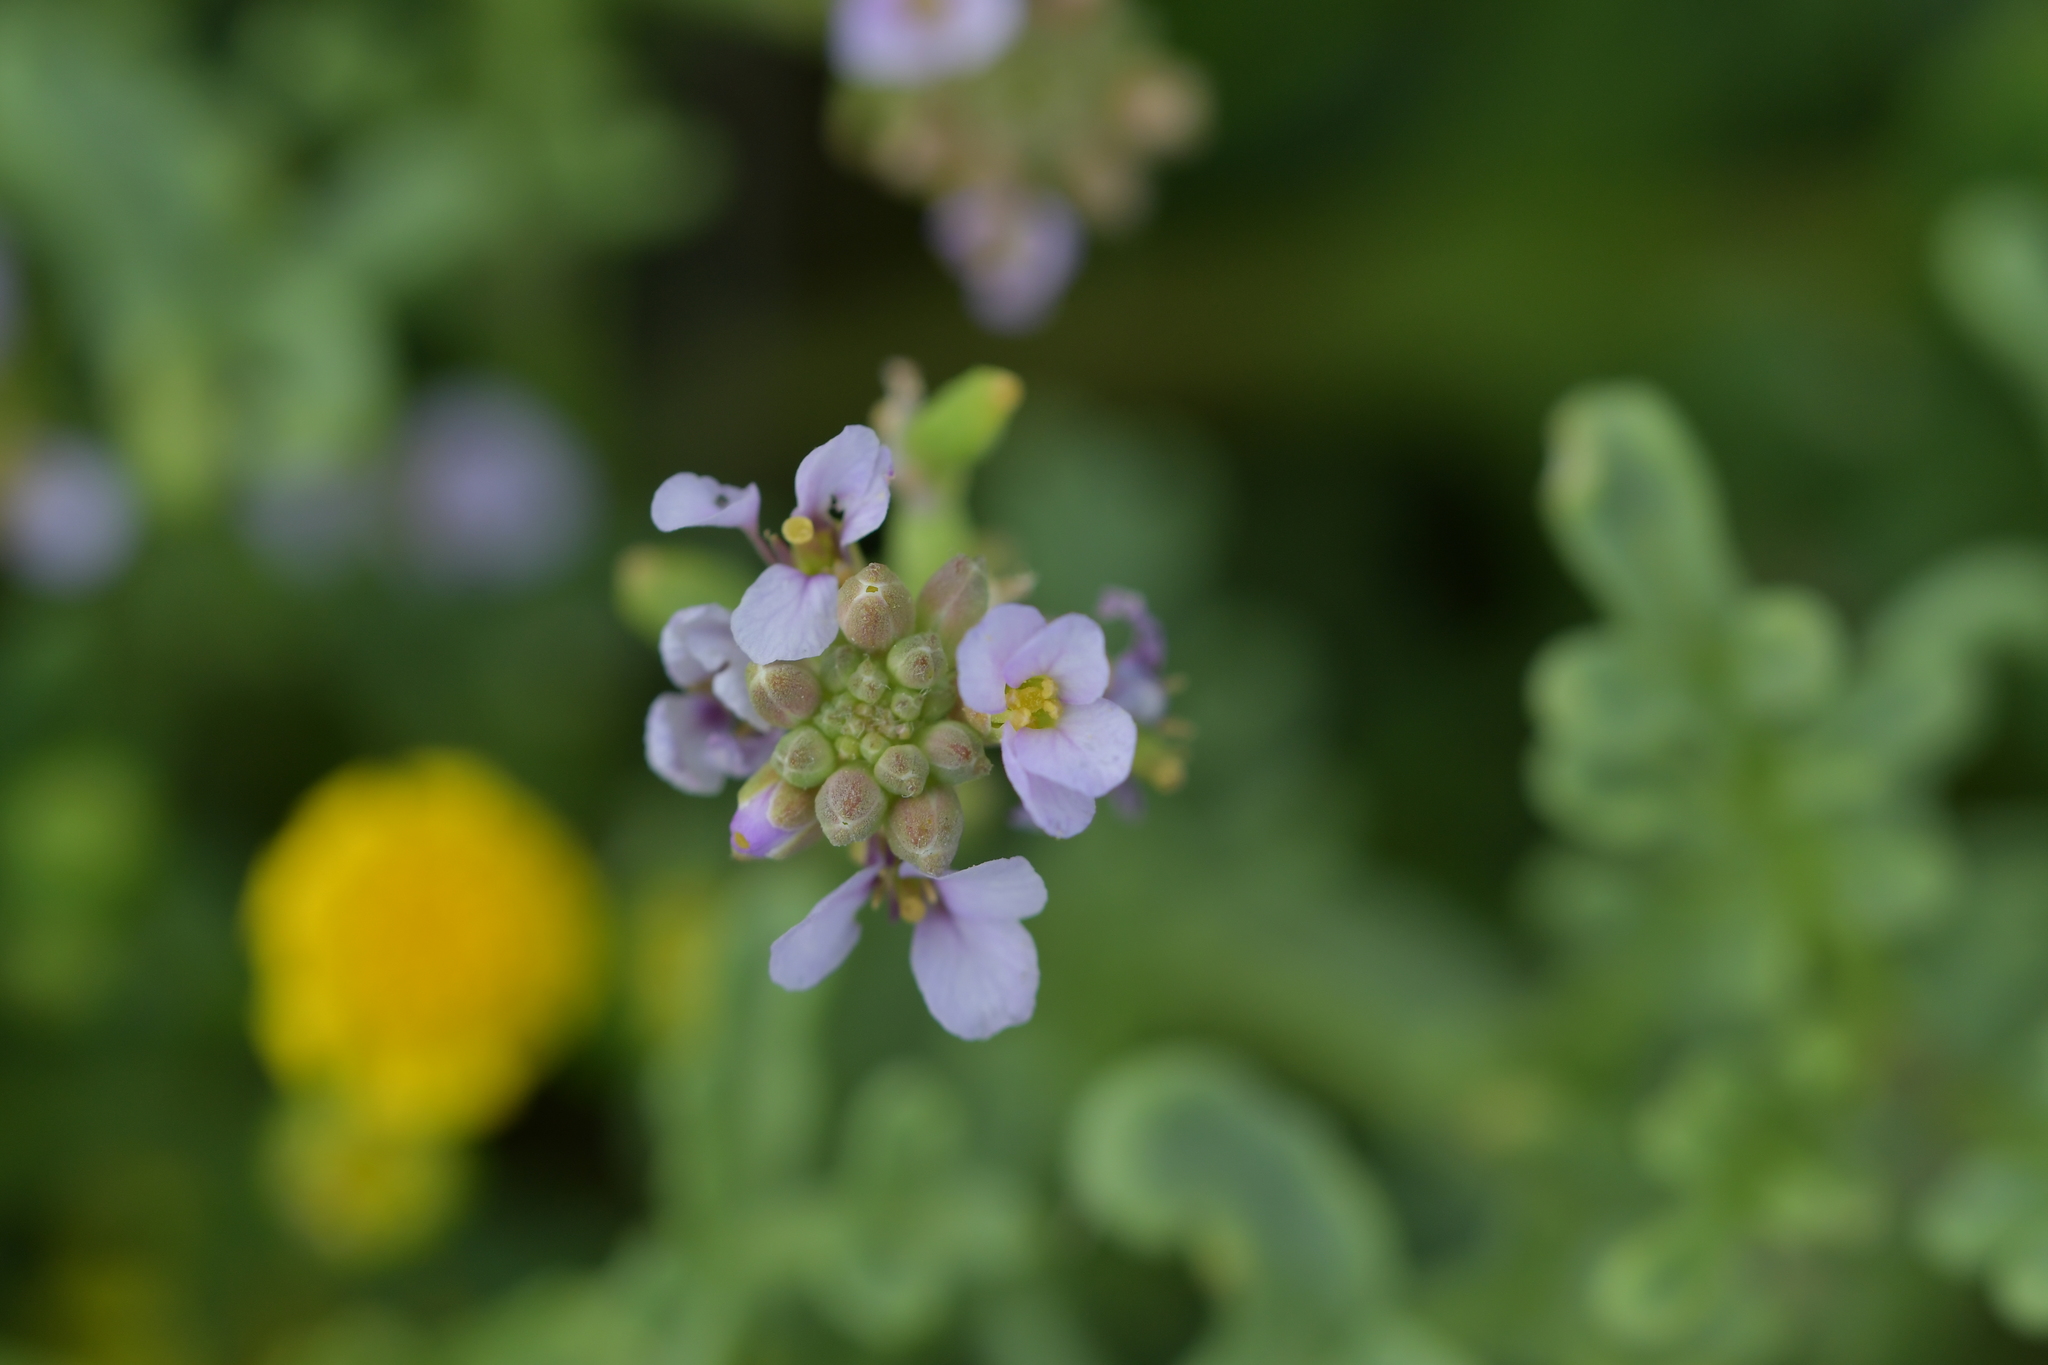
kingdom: Plantae
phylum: Tracheophyta
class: Magnoliopsida
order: Brassicales
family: Brassicaceae
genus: Cakile
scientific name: Cakile maritima
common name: Sea rocket
